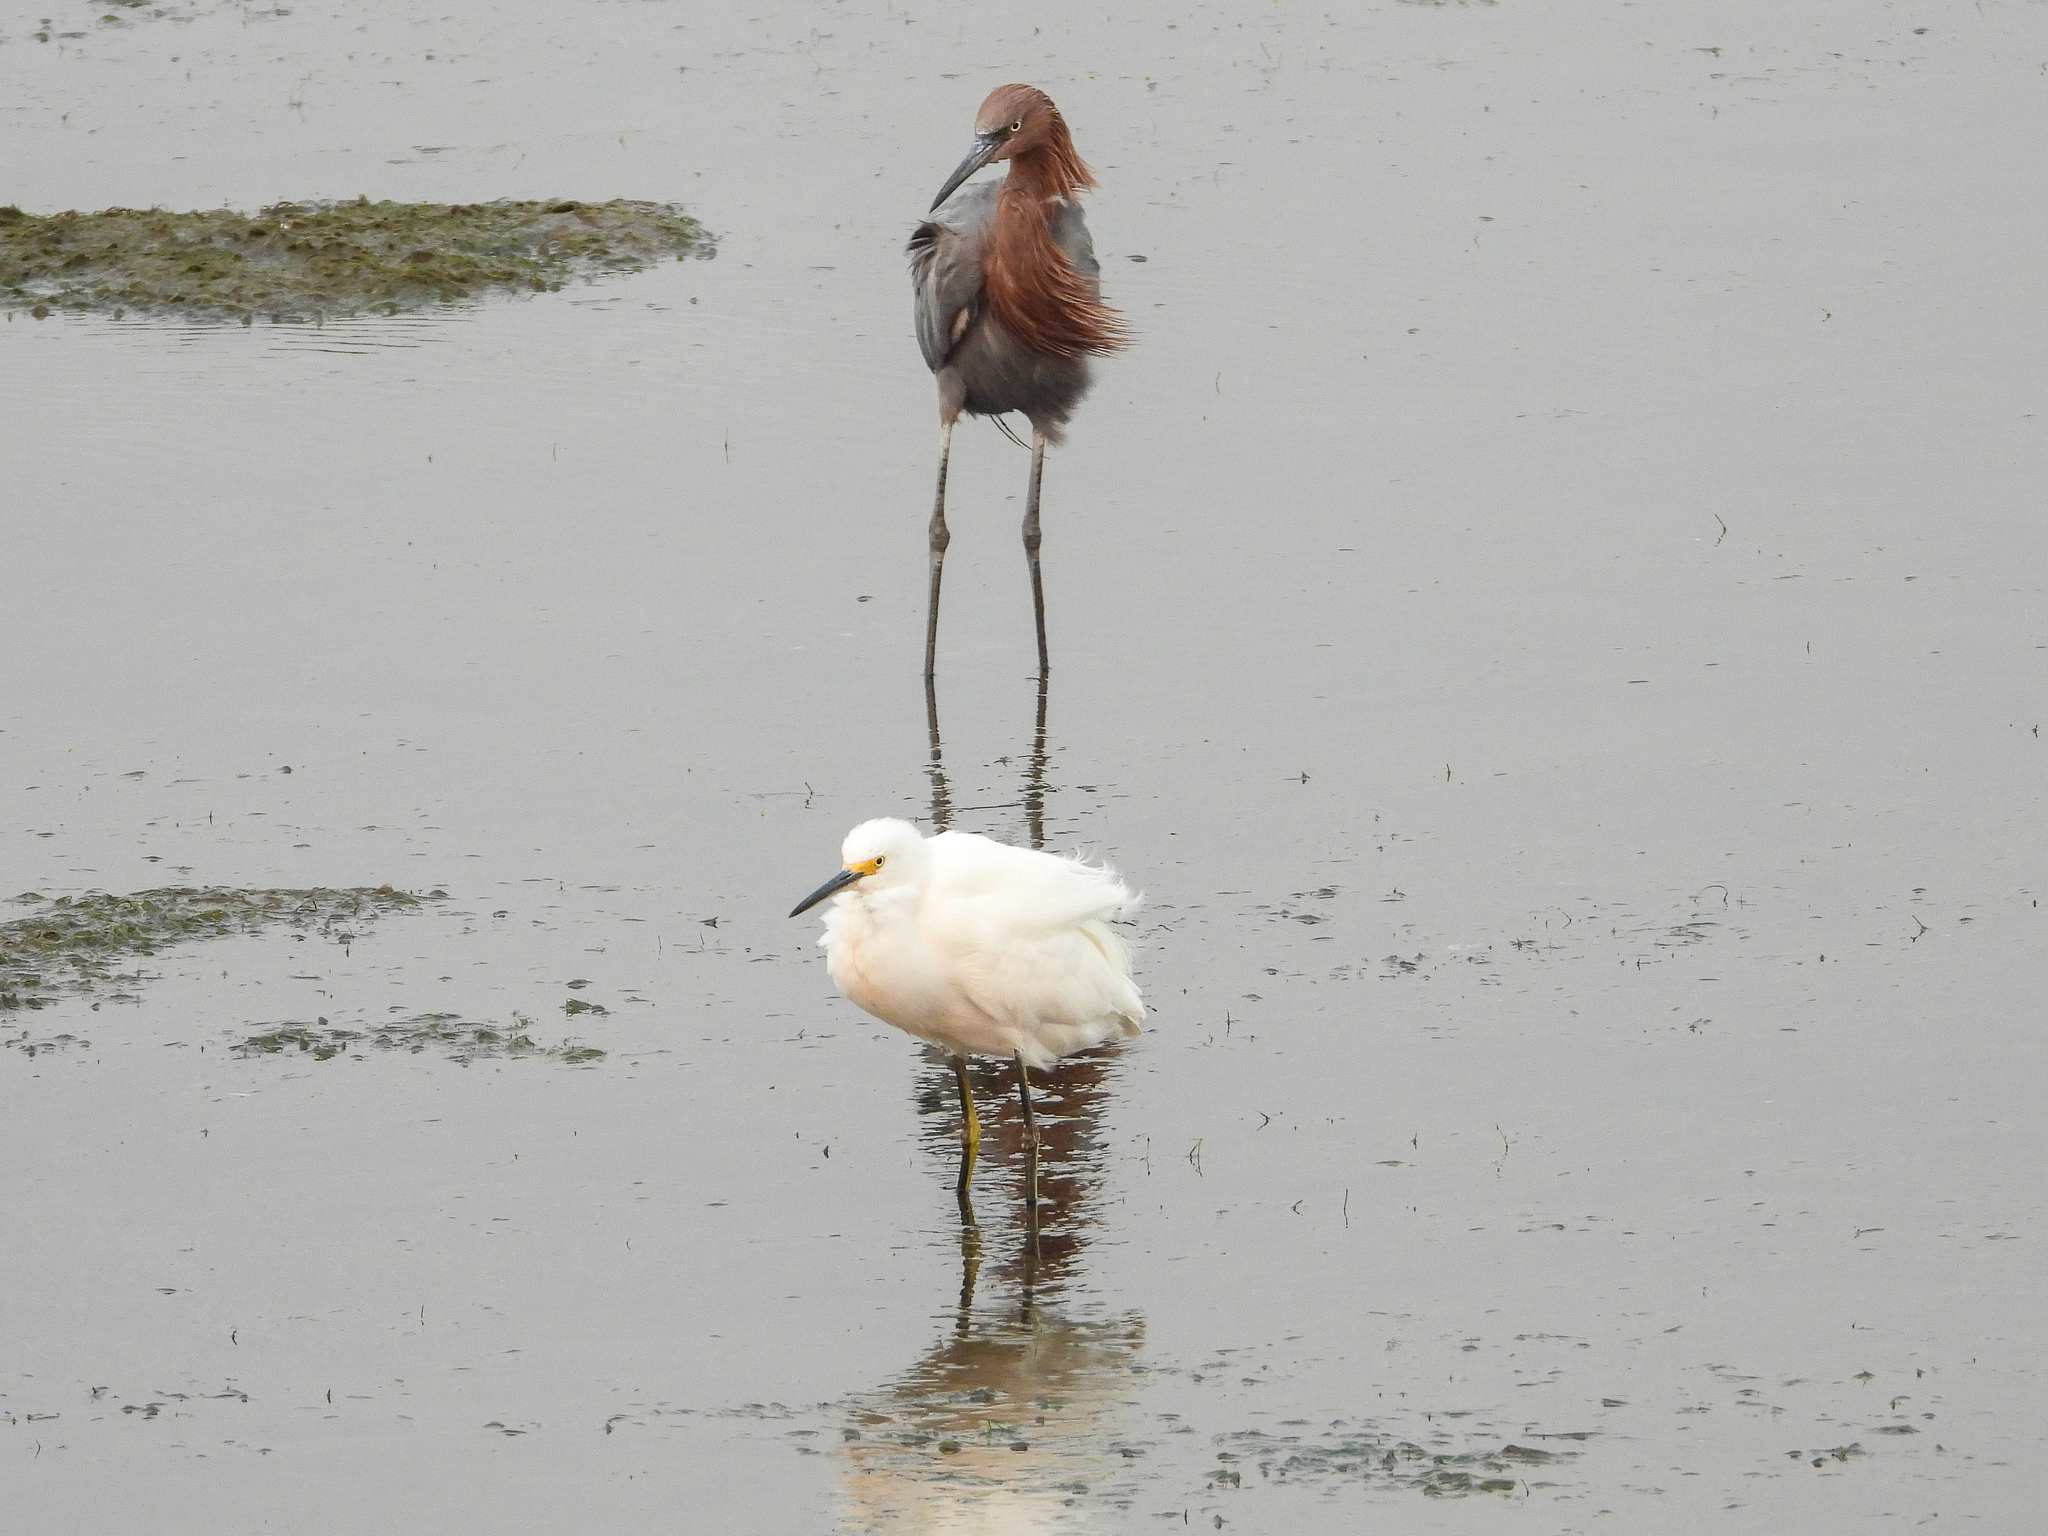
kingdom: Animalia
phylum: Chordata
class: Aves
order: Pelecaniformes
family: Ardeidae
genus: Egretta
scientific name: Egretta thula
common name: Snowy egret
